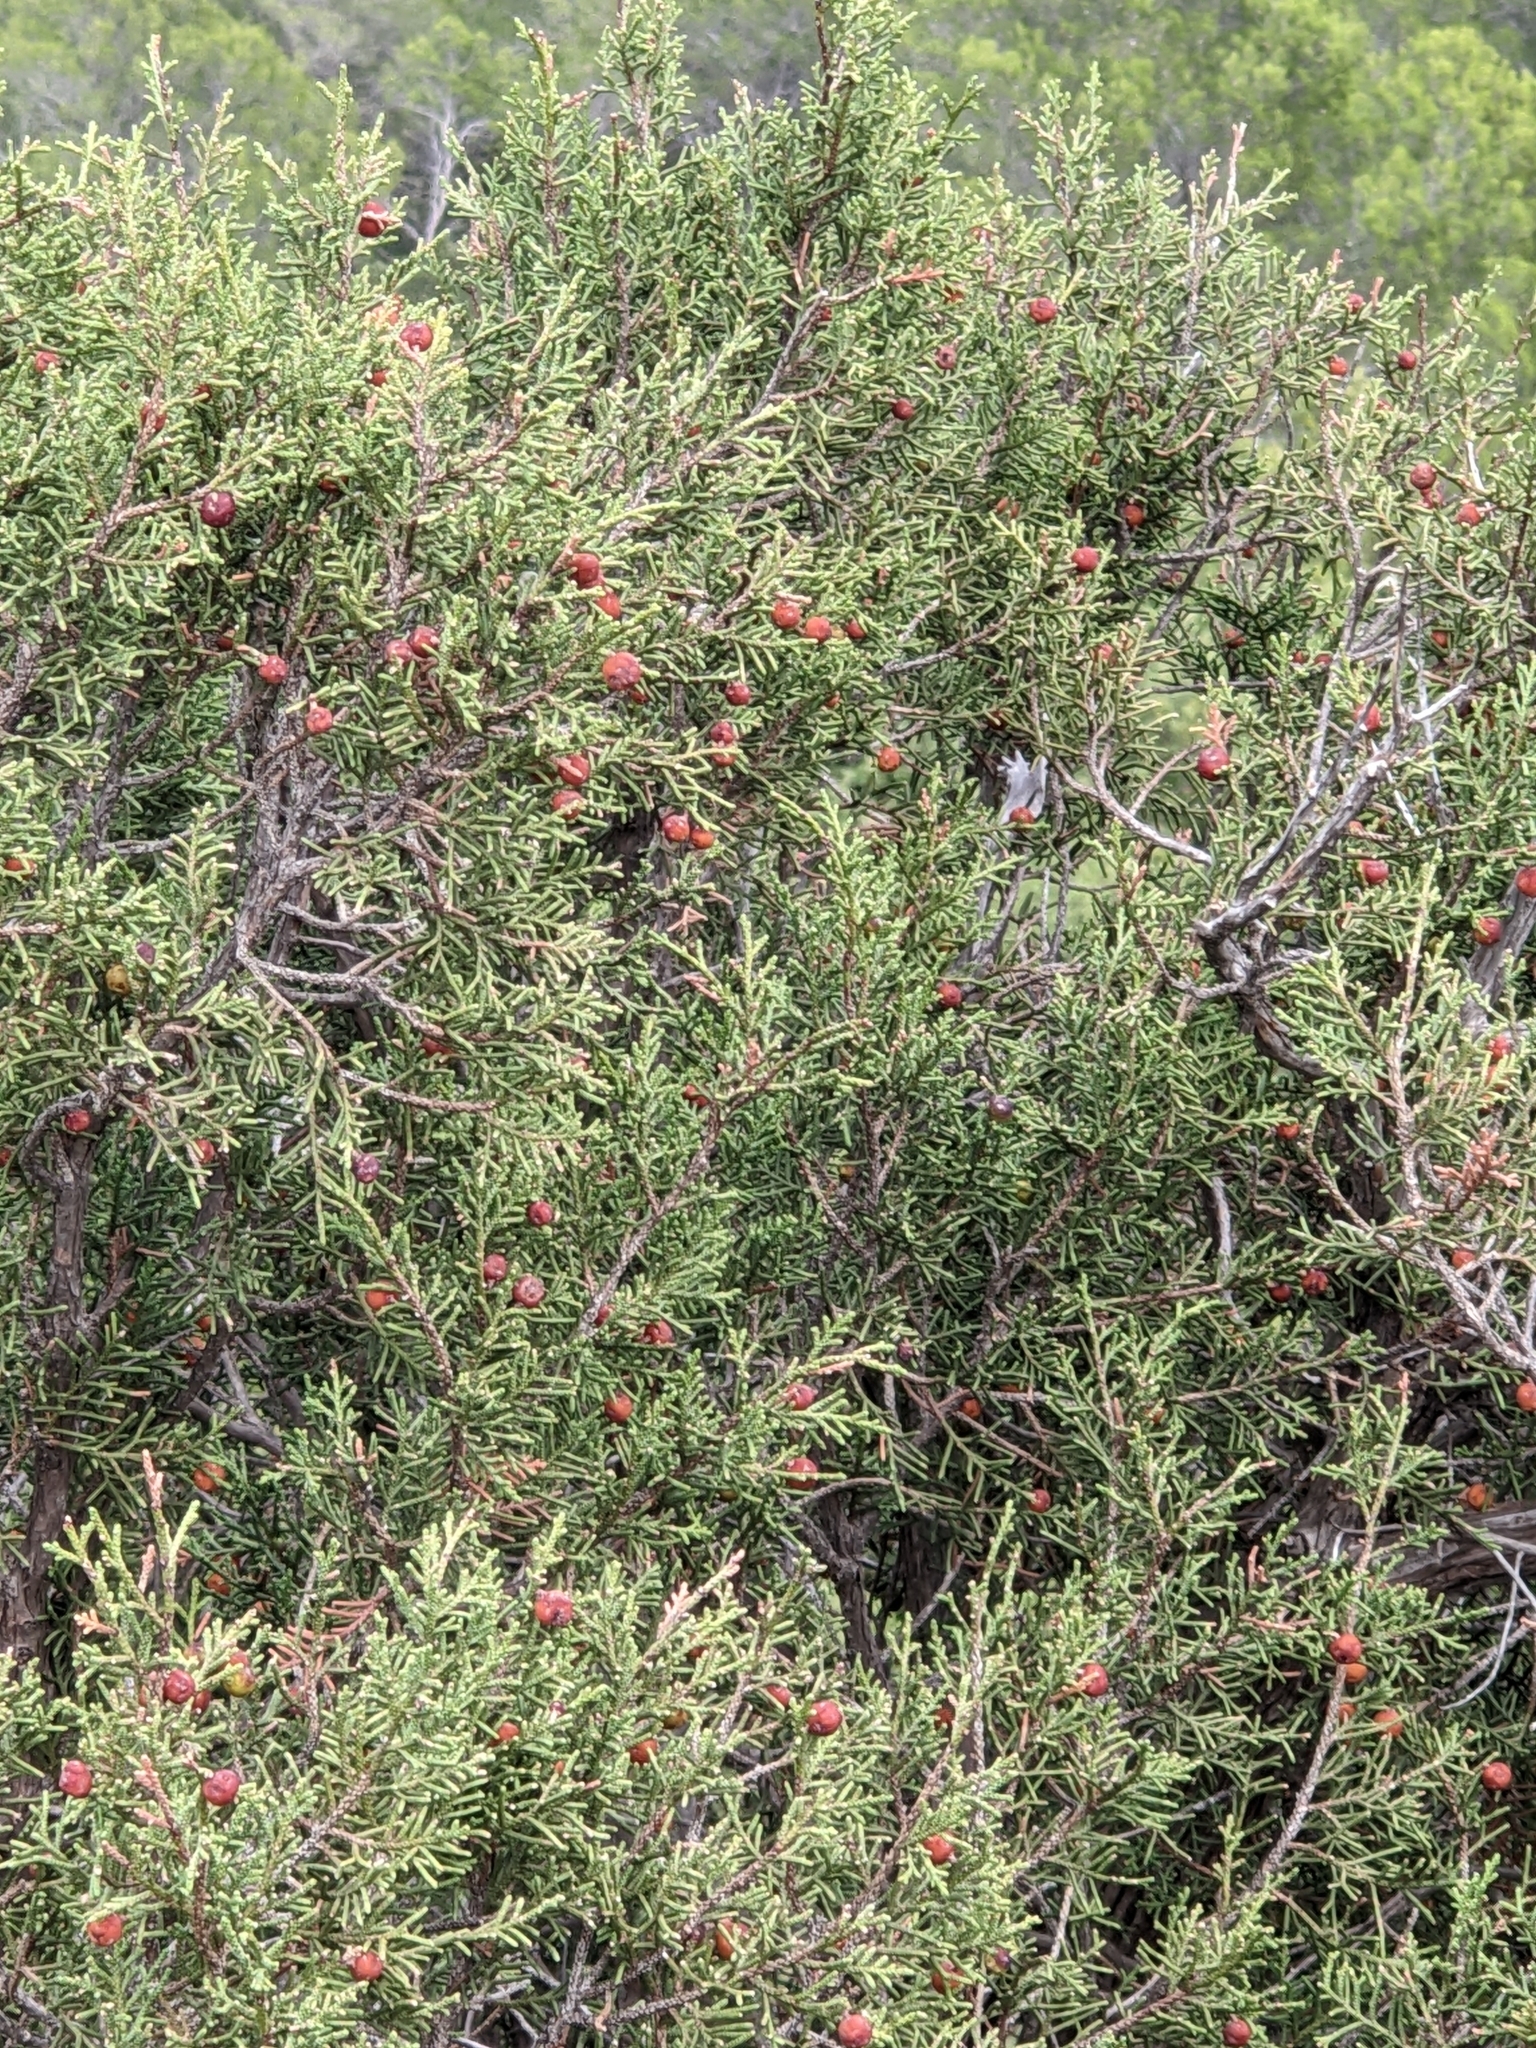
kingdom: Plantae
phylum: Tracheophyta
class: Pinopsida
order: Pinales
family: Cupressaceae
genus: Juniperus
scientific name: Juniperus phoenicea
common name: Phoenician juniper
